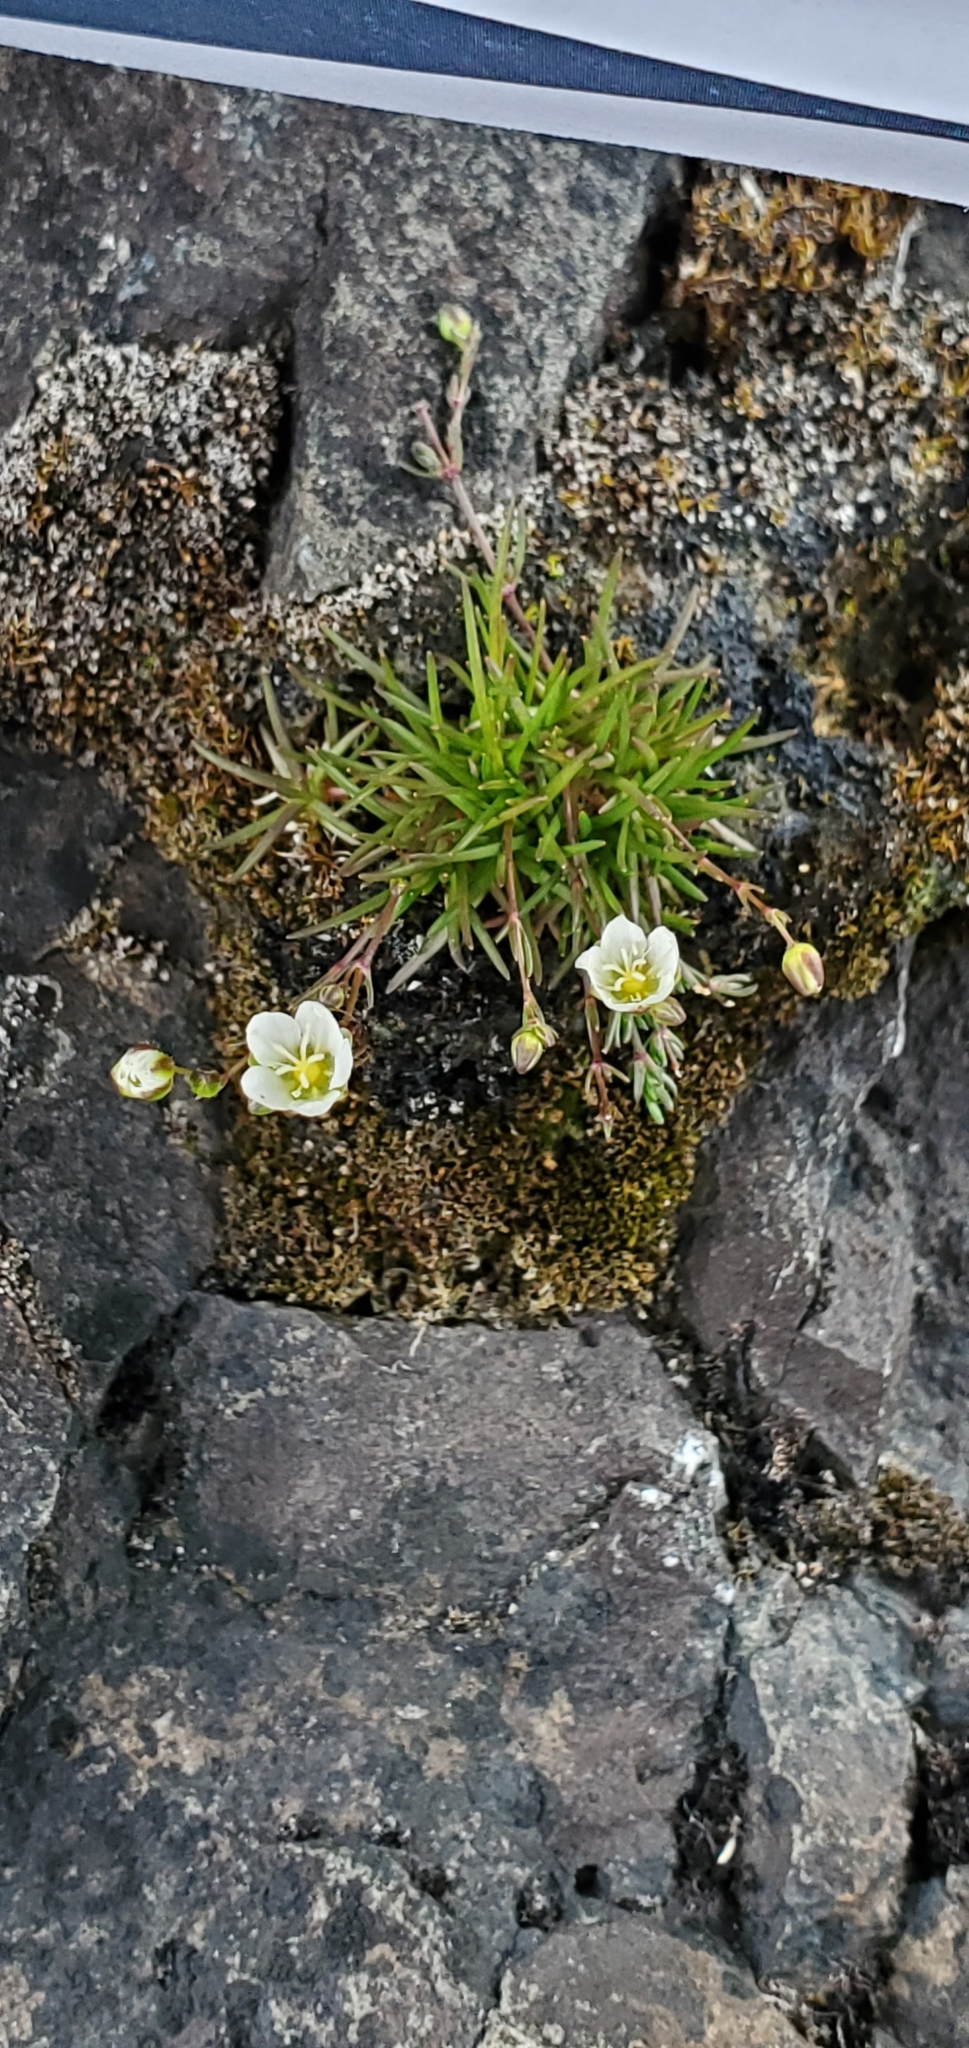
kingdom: Plantae
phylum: Tracheophyta
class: Magnoliopsida
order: Caryophyllales
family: Caryophyllaceae
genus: Sagina
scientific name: Sagina nodosa
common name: Knotted pearlwort
